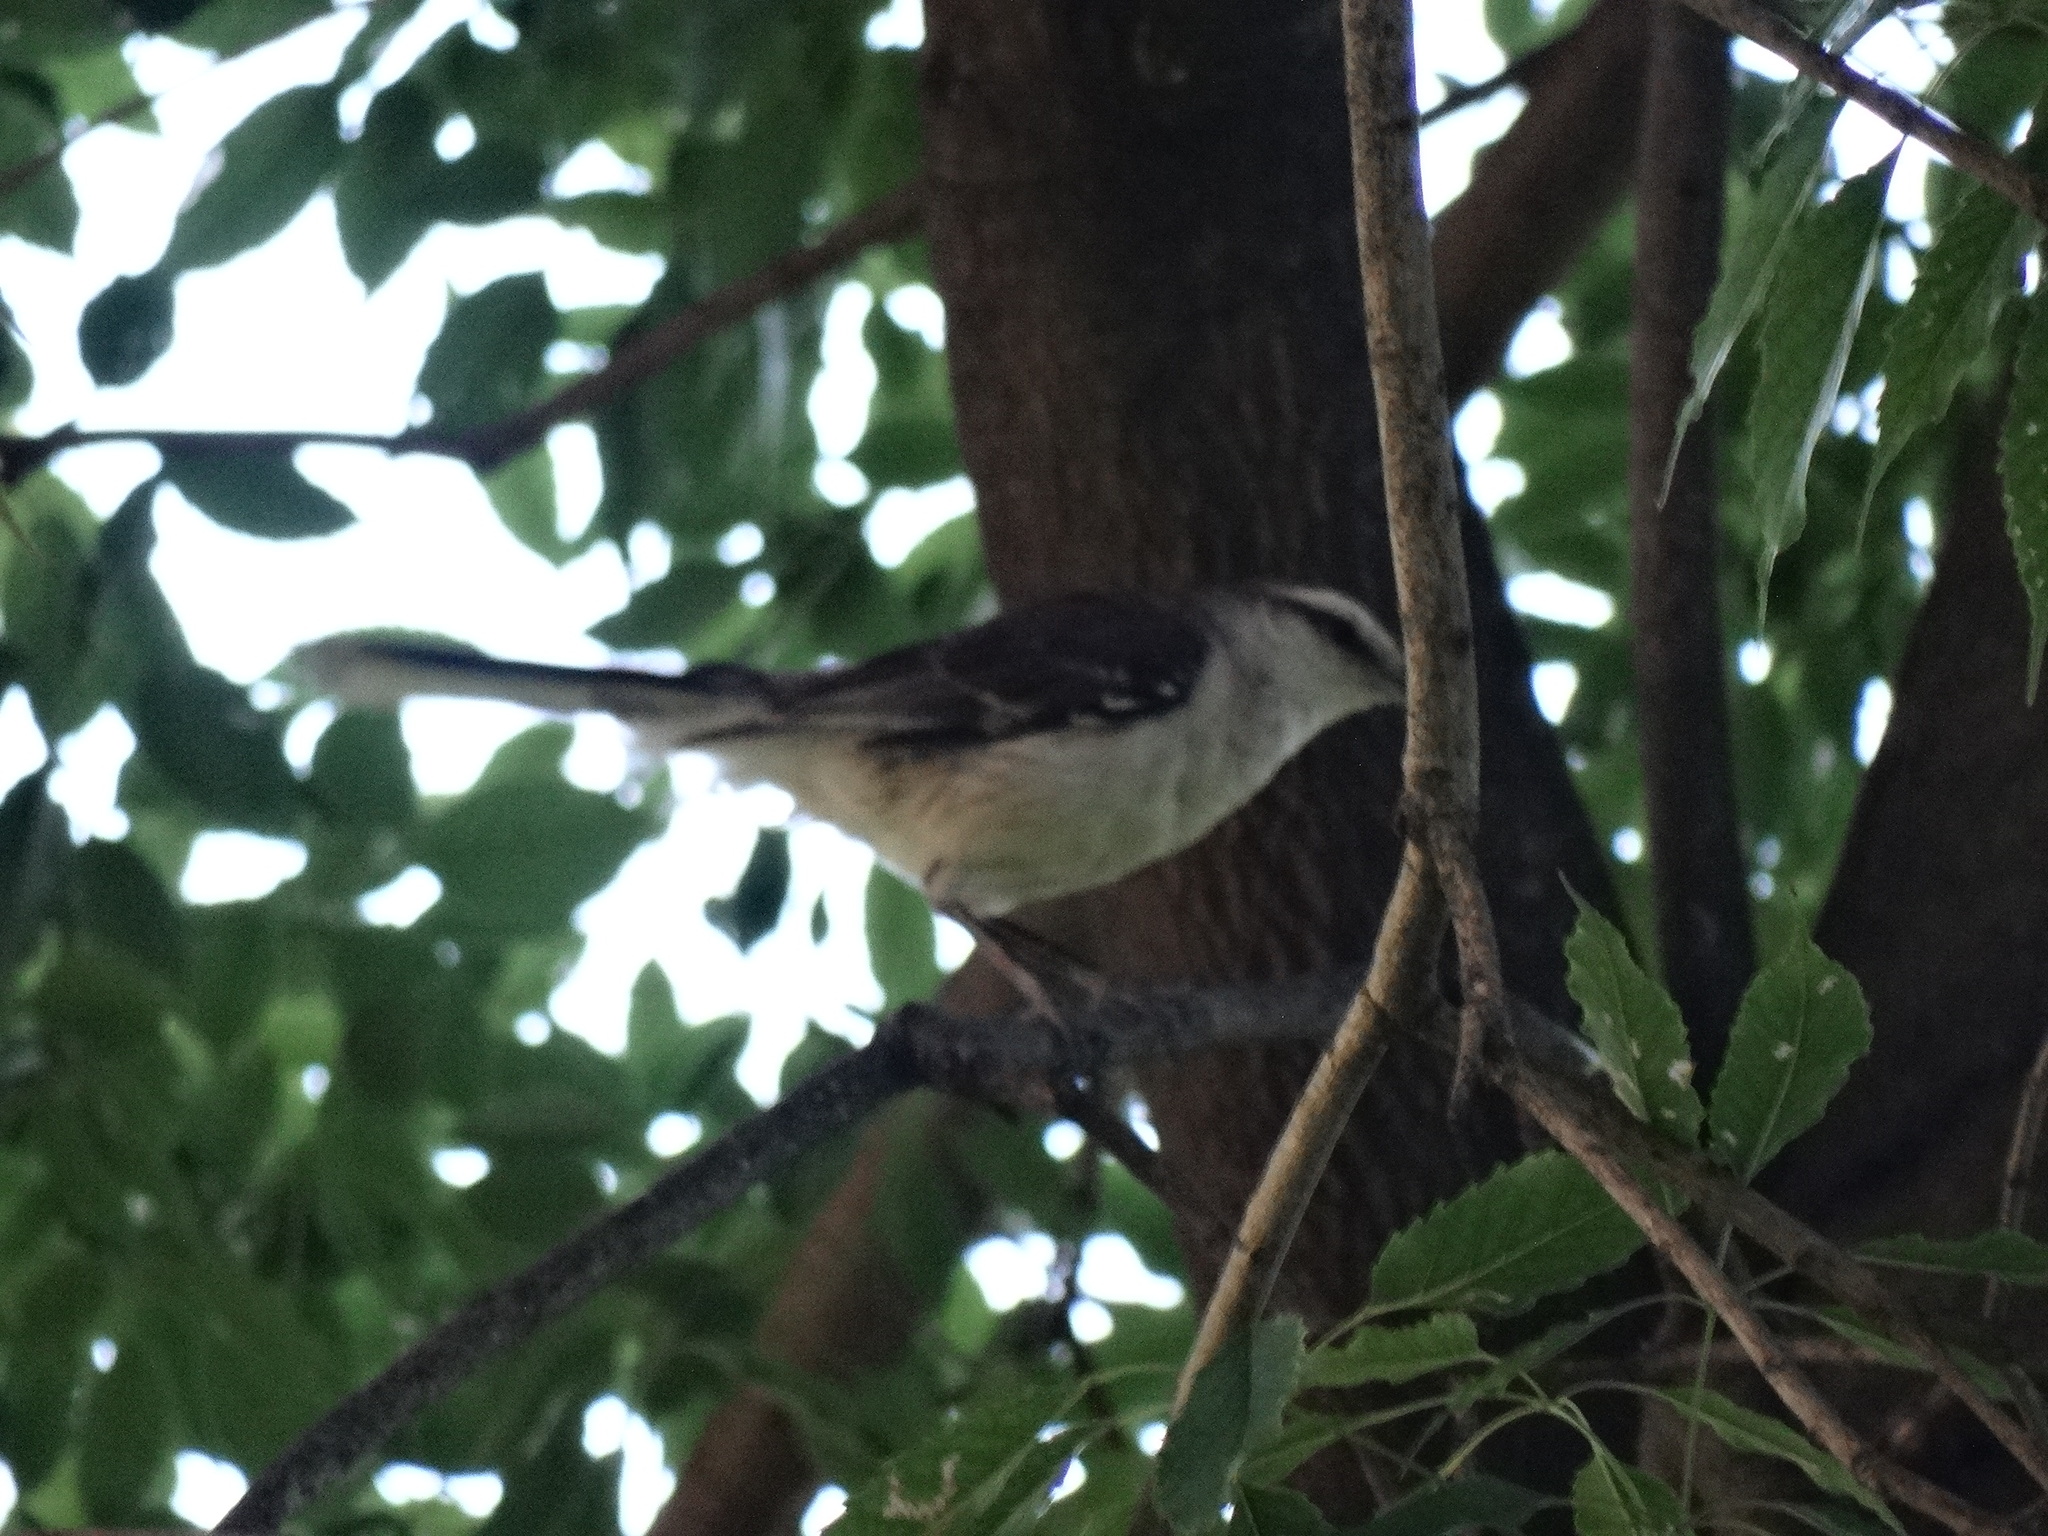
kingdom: Animalia
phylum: Chordata
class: Aves
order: Passeriformes
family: Mimidae
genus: Mimus
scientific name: Mimus saturninus
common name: Chalk-browed mockingbird
